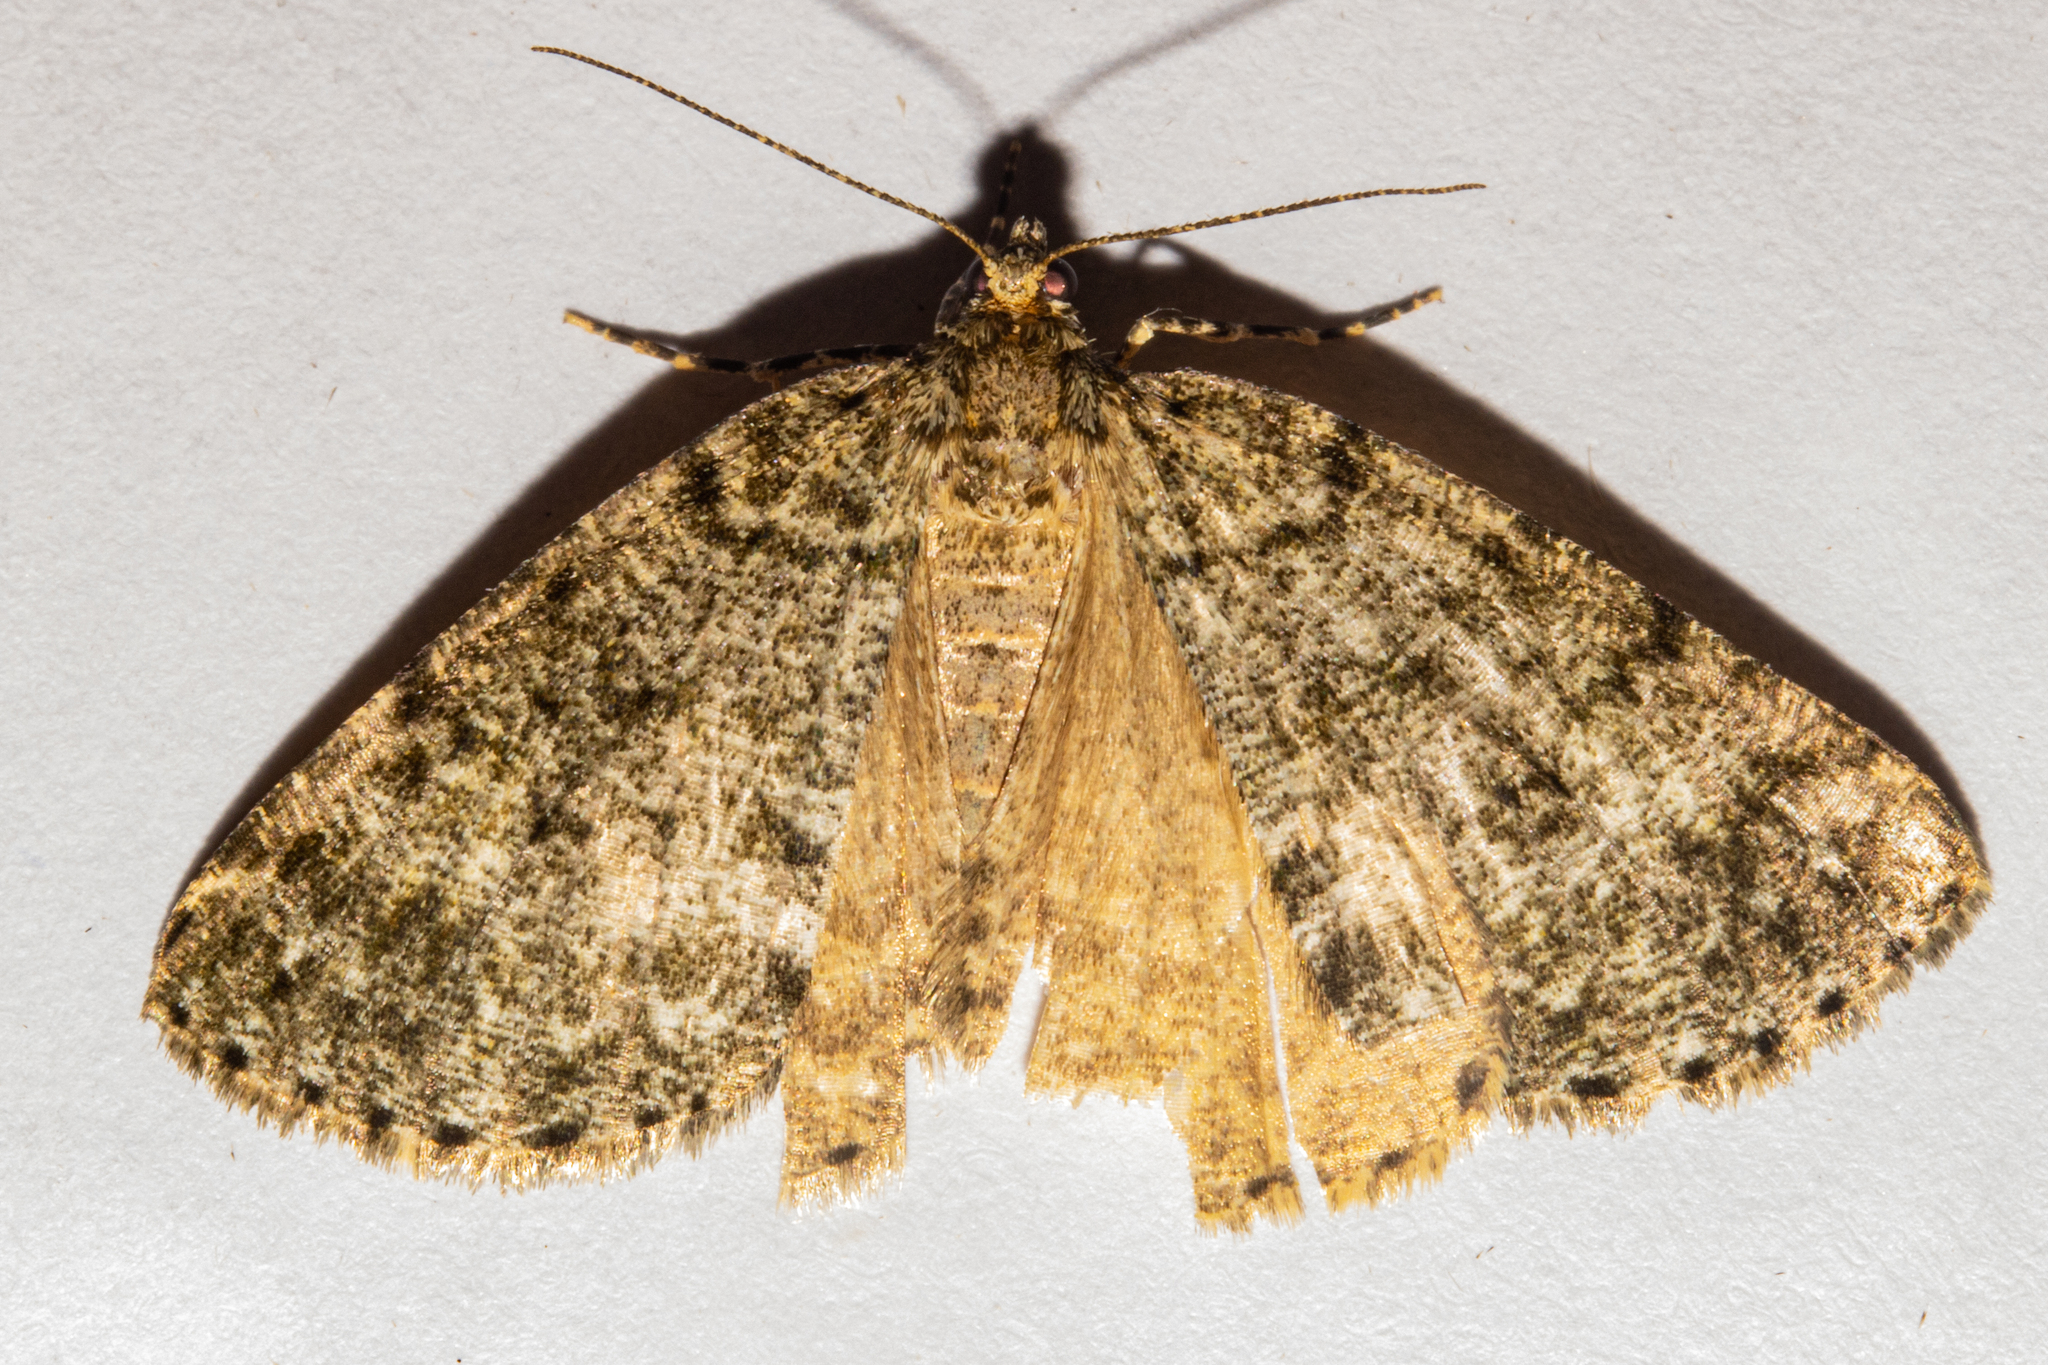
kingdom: Animalia
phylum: Arthropoda
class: Insecta
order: Lepidoptera
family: Geometridae
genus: Pseudocoremia
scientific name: Pseudocoremia indistincta
